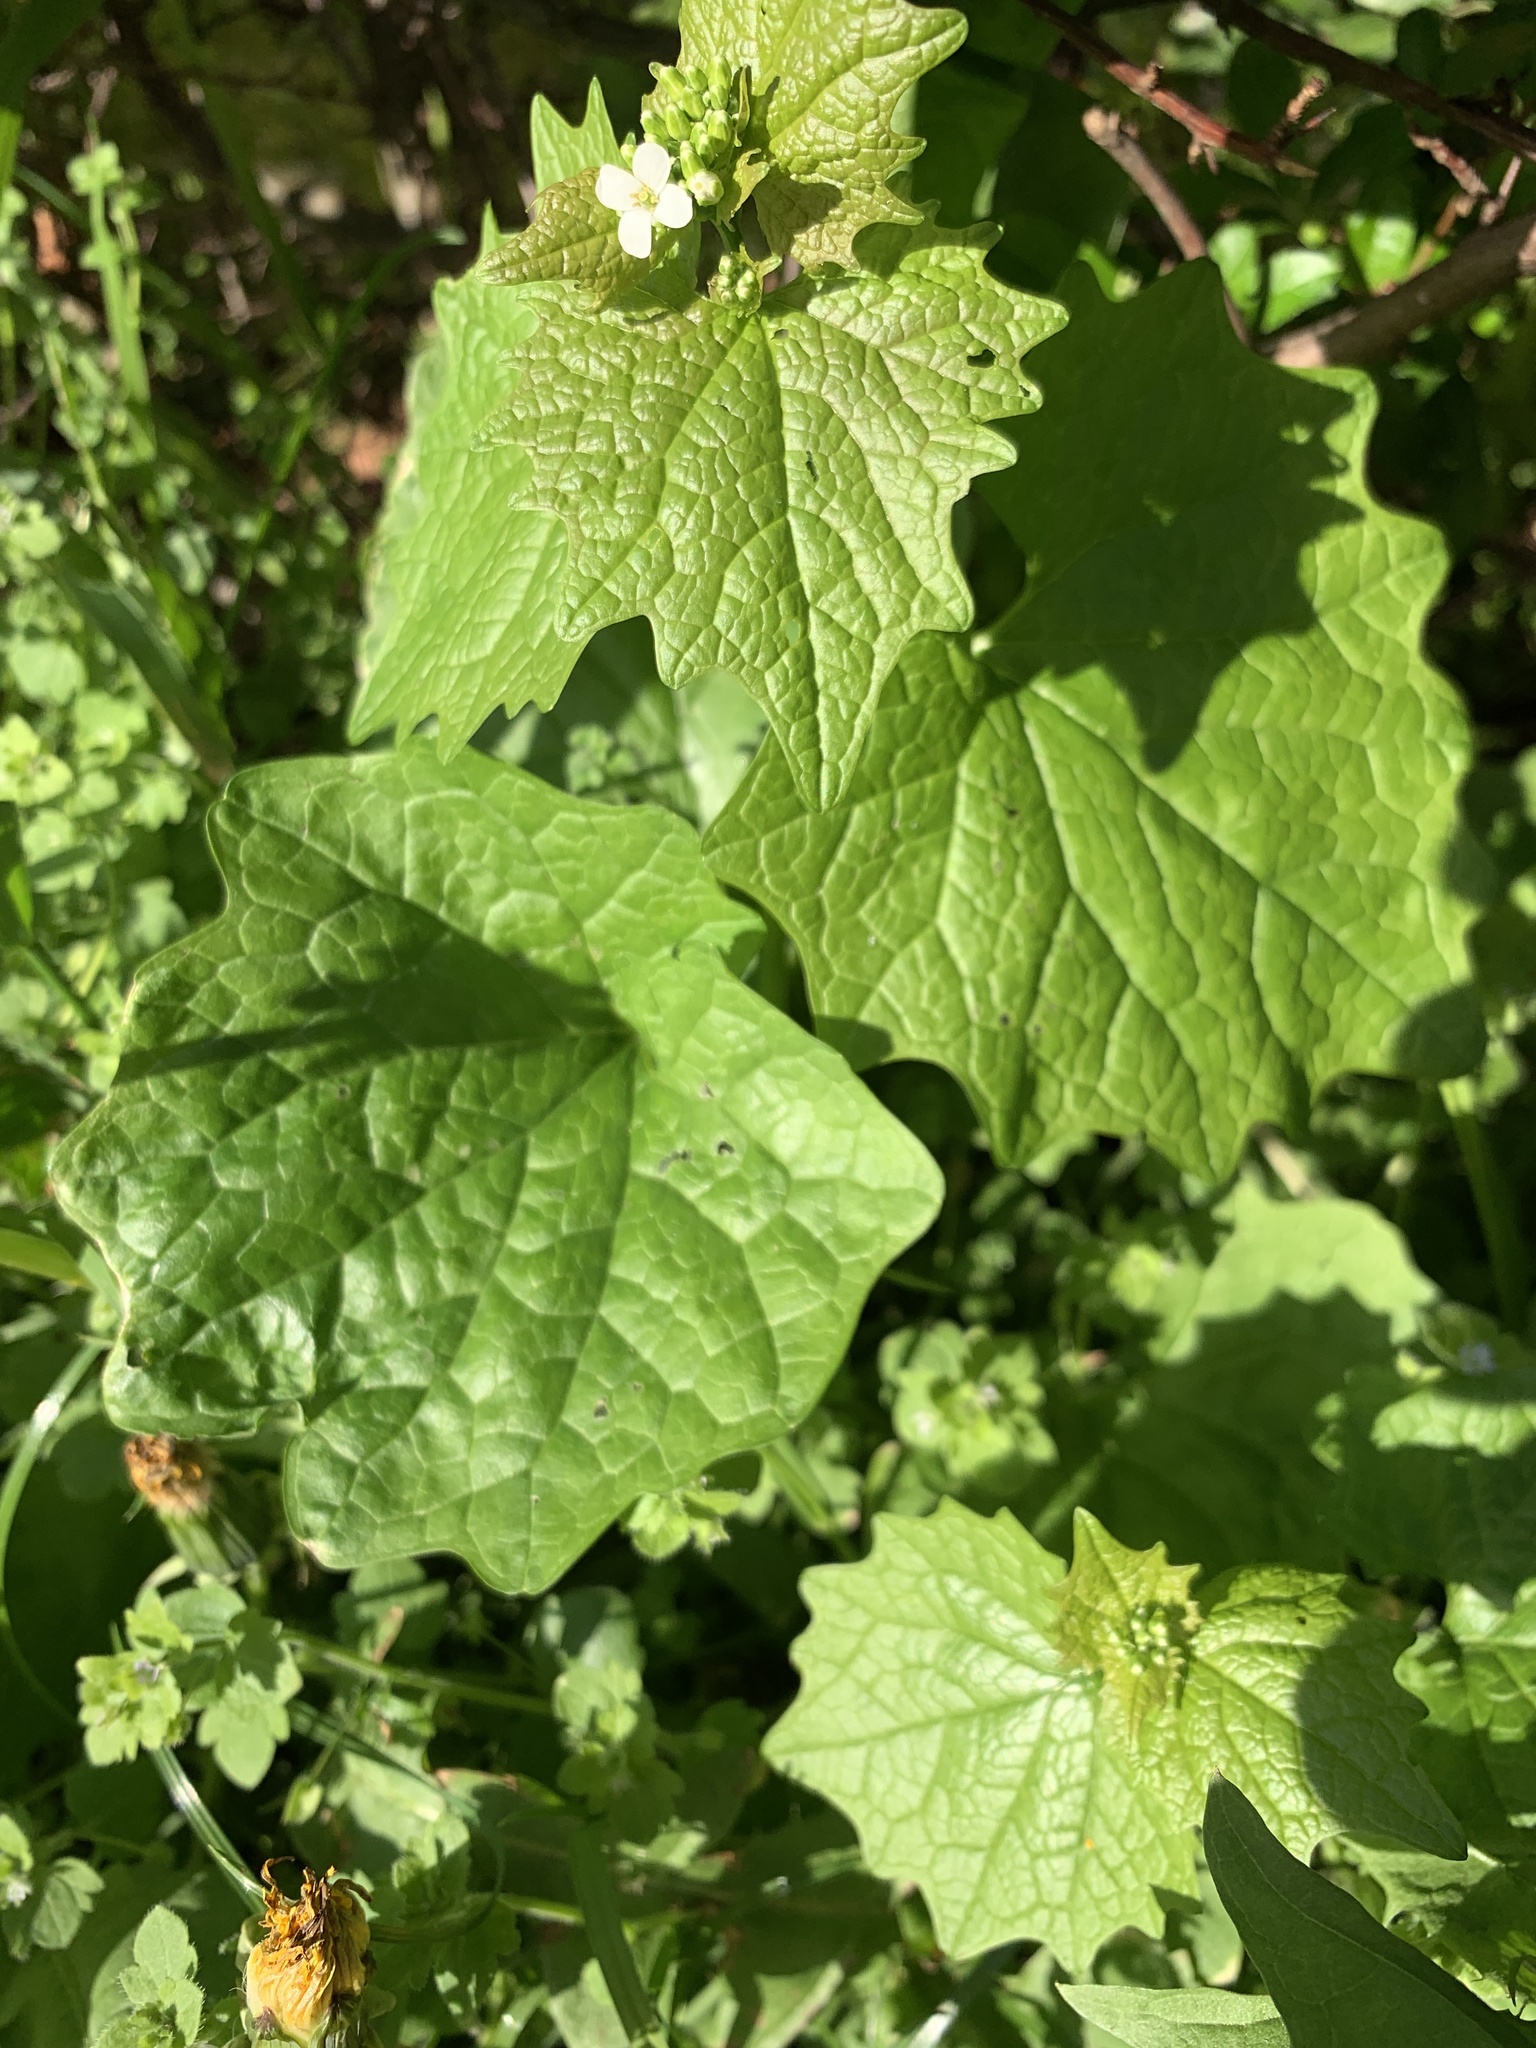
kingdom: Plantae
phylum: Tracheophyta
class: Magnoliopsida
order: Brassicales
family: Brassicaceae
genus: Alliaria
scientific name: Alliaria petiolata
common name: Garlic mustard
